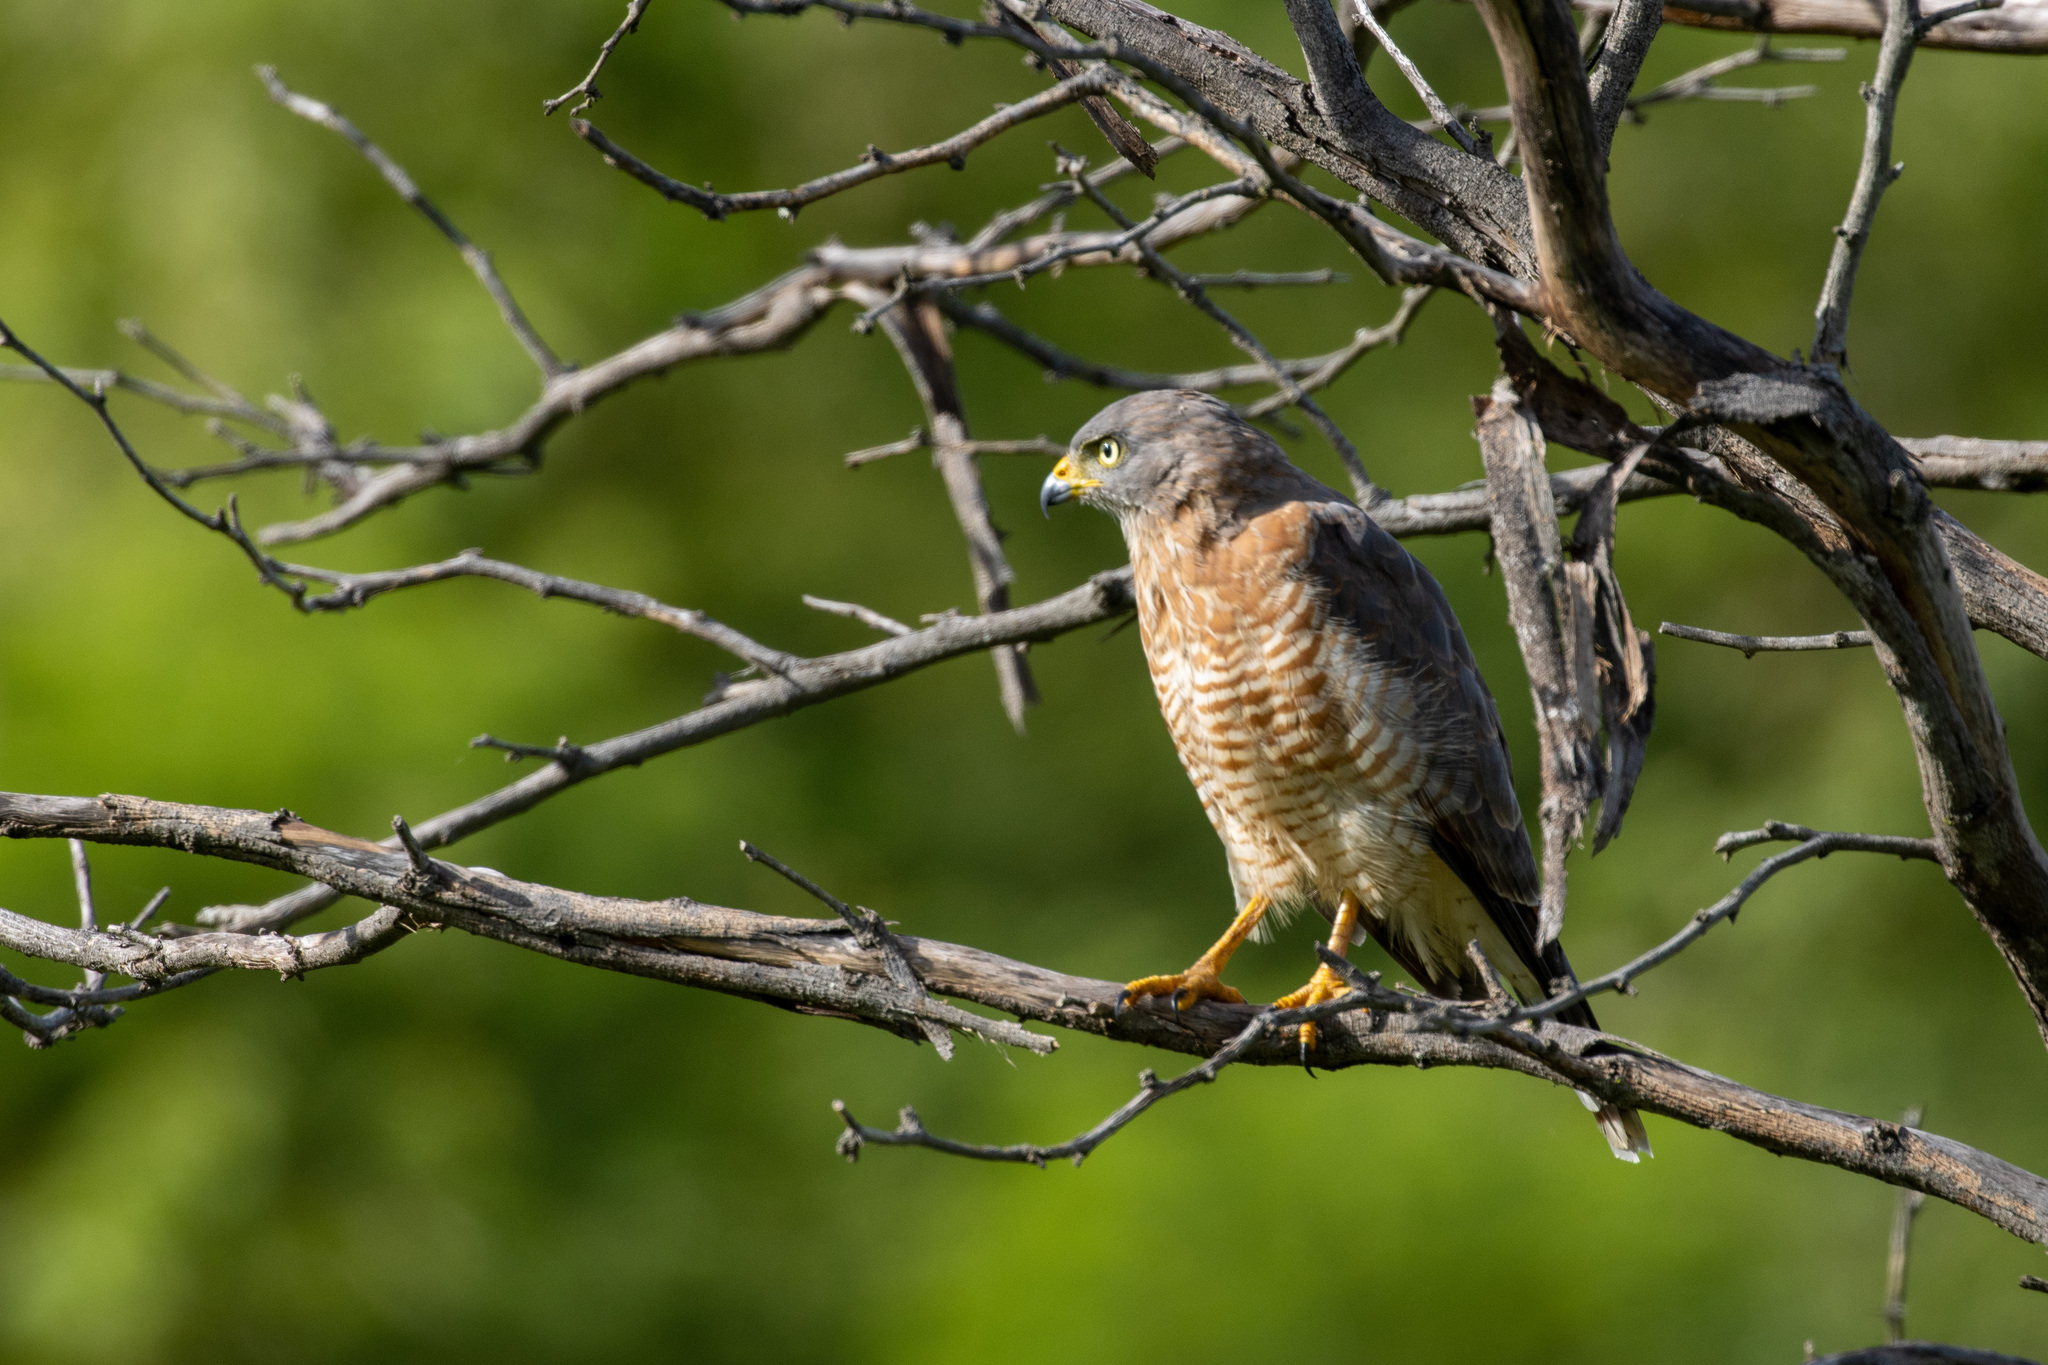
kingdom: Animalia
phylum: Chordata
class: Aves
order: Accipitriformes
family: Accipitridae
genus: Rupornis
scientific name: Rupornis magnirostris
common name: Roadside hawk
